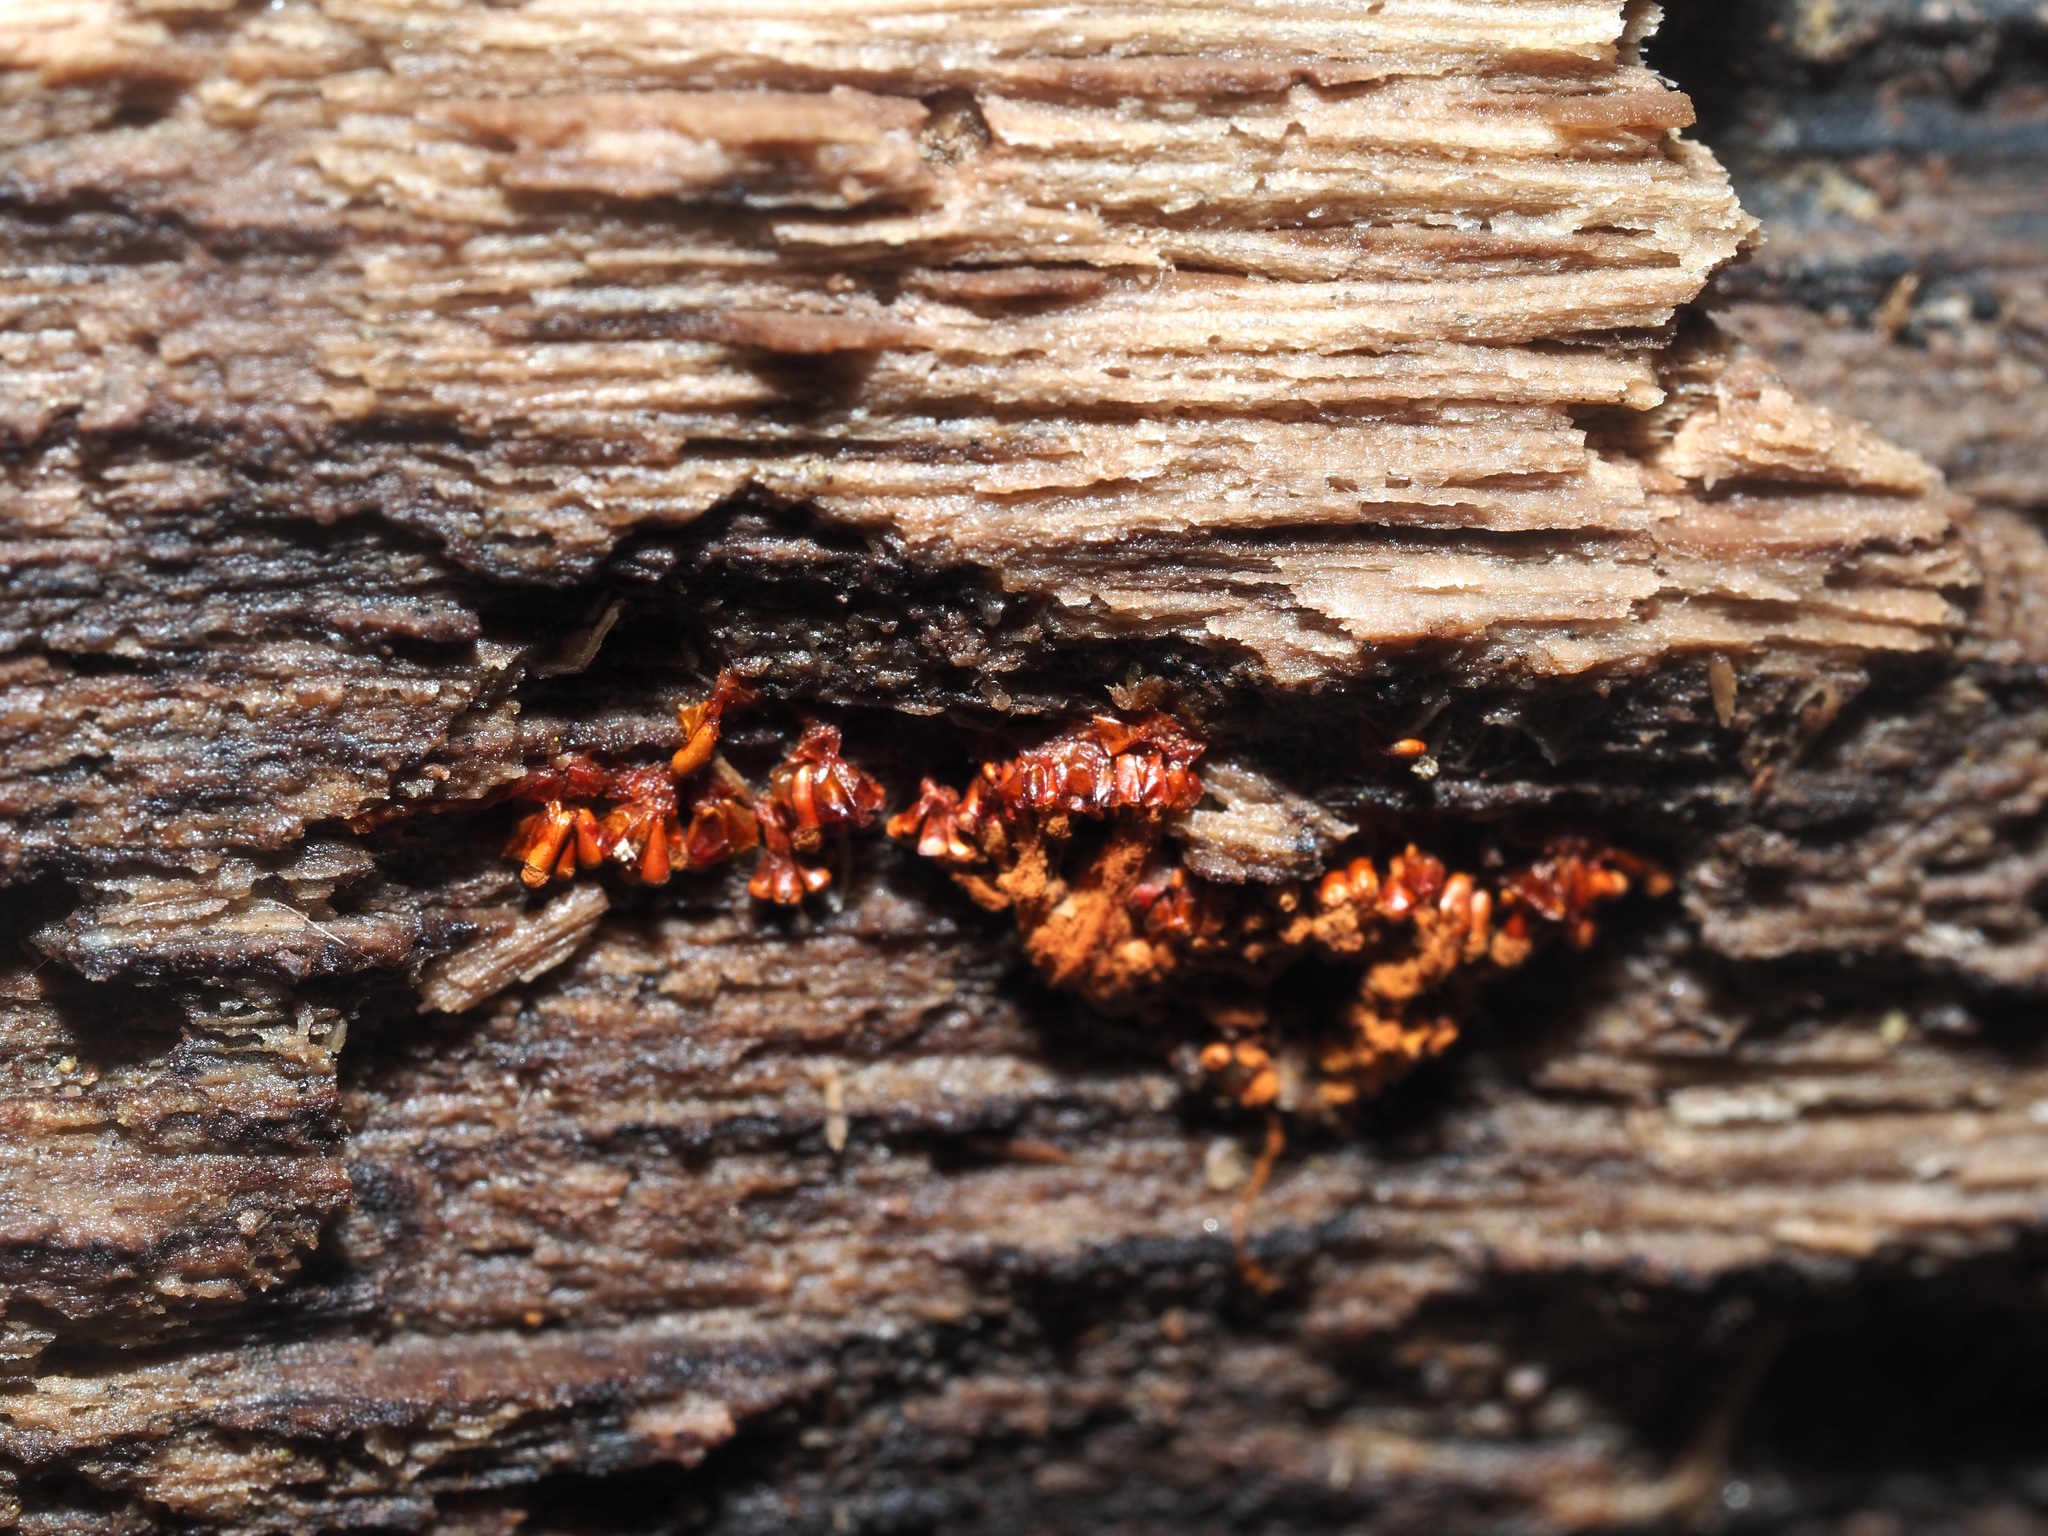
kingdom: Protozoa
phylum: Mycetozoa
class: Myxomycetes
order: Trichiales
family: Trichiaceae
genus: Metatrichia
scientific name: Metatrichia vesparia
